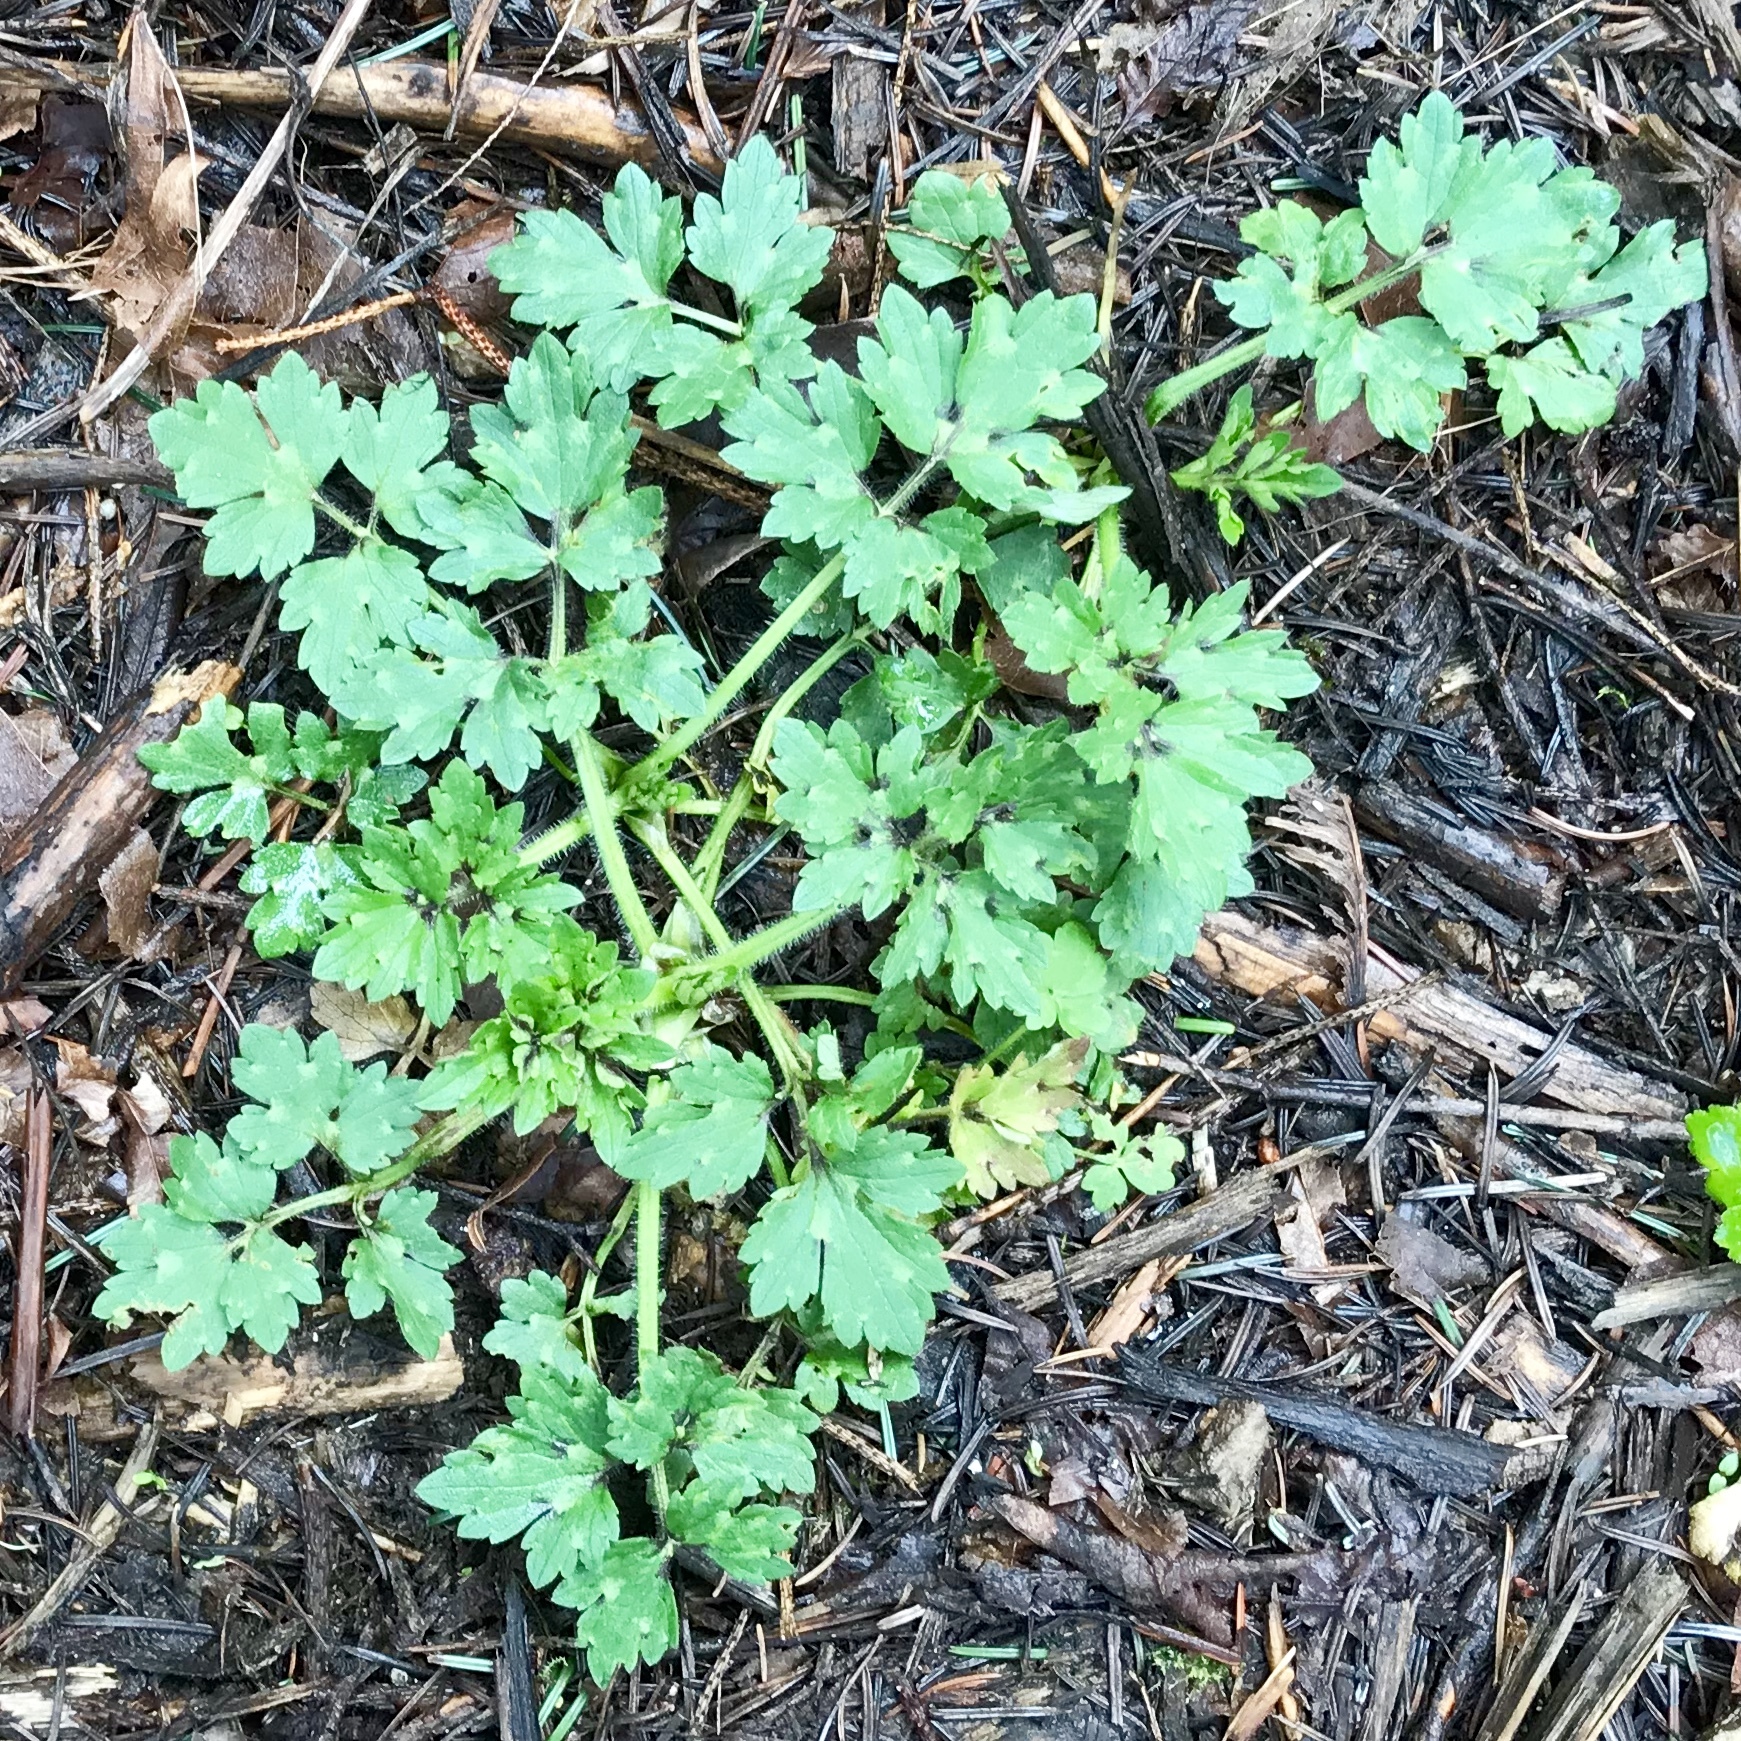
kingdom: Plantae
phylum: Tracheophyta
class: Magnoliopsida
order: Ranunculales
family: Ranunculaceae
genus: Ranunculus
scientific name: Ranunculus repens
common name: Creeping buttercup
